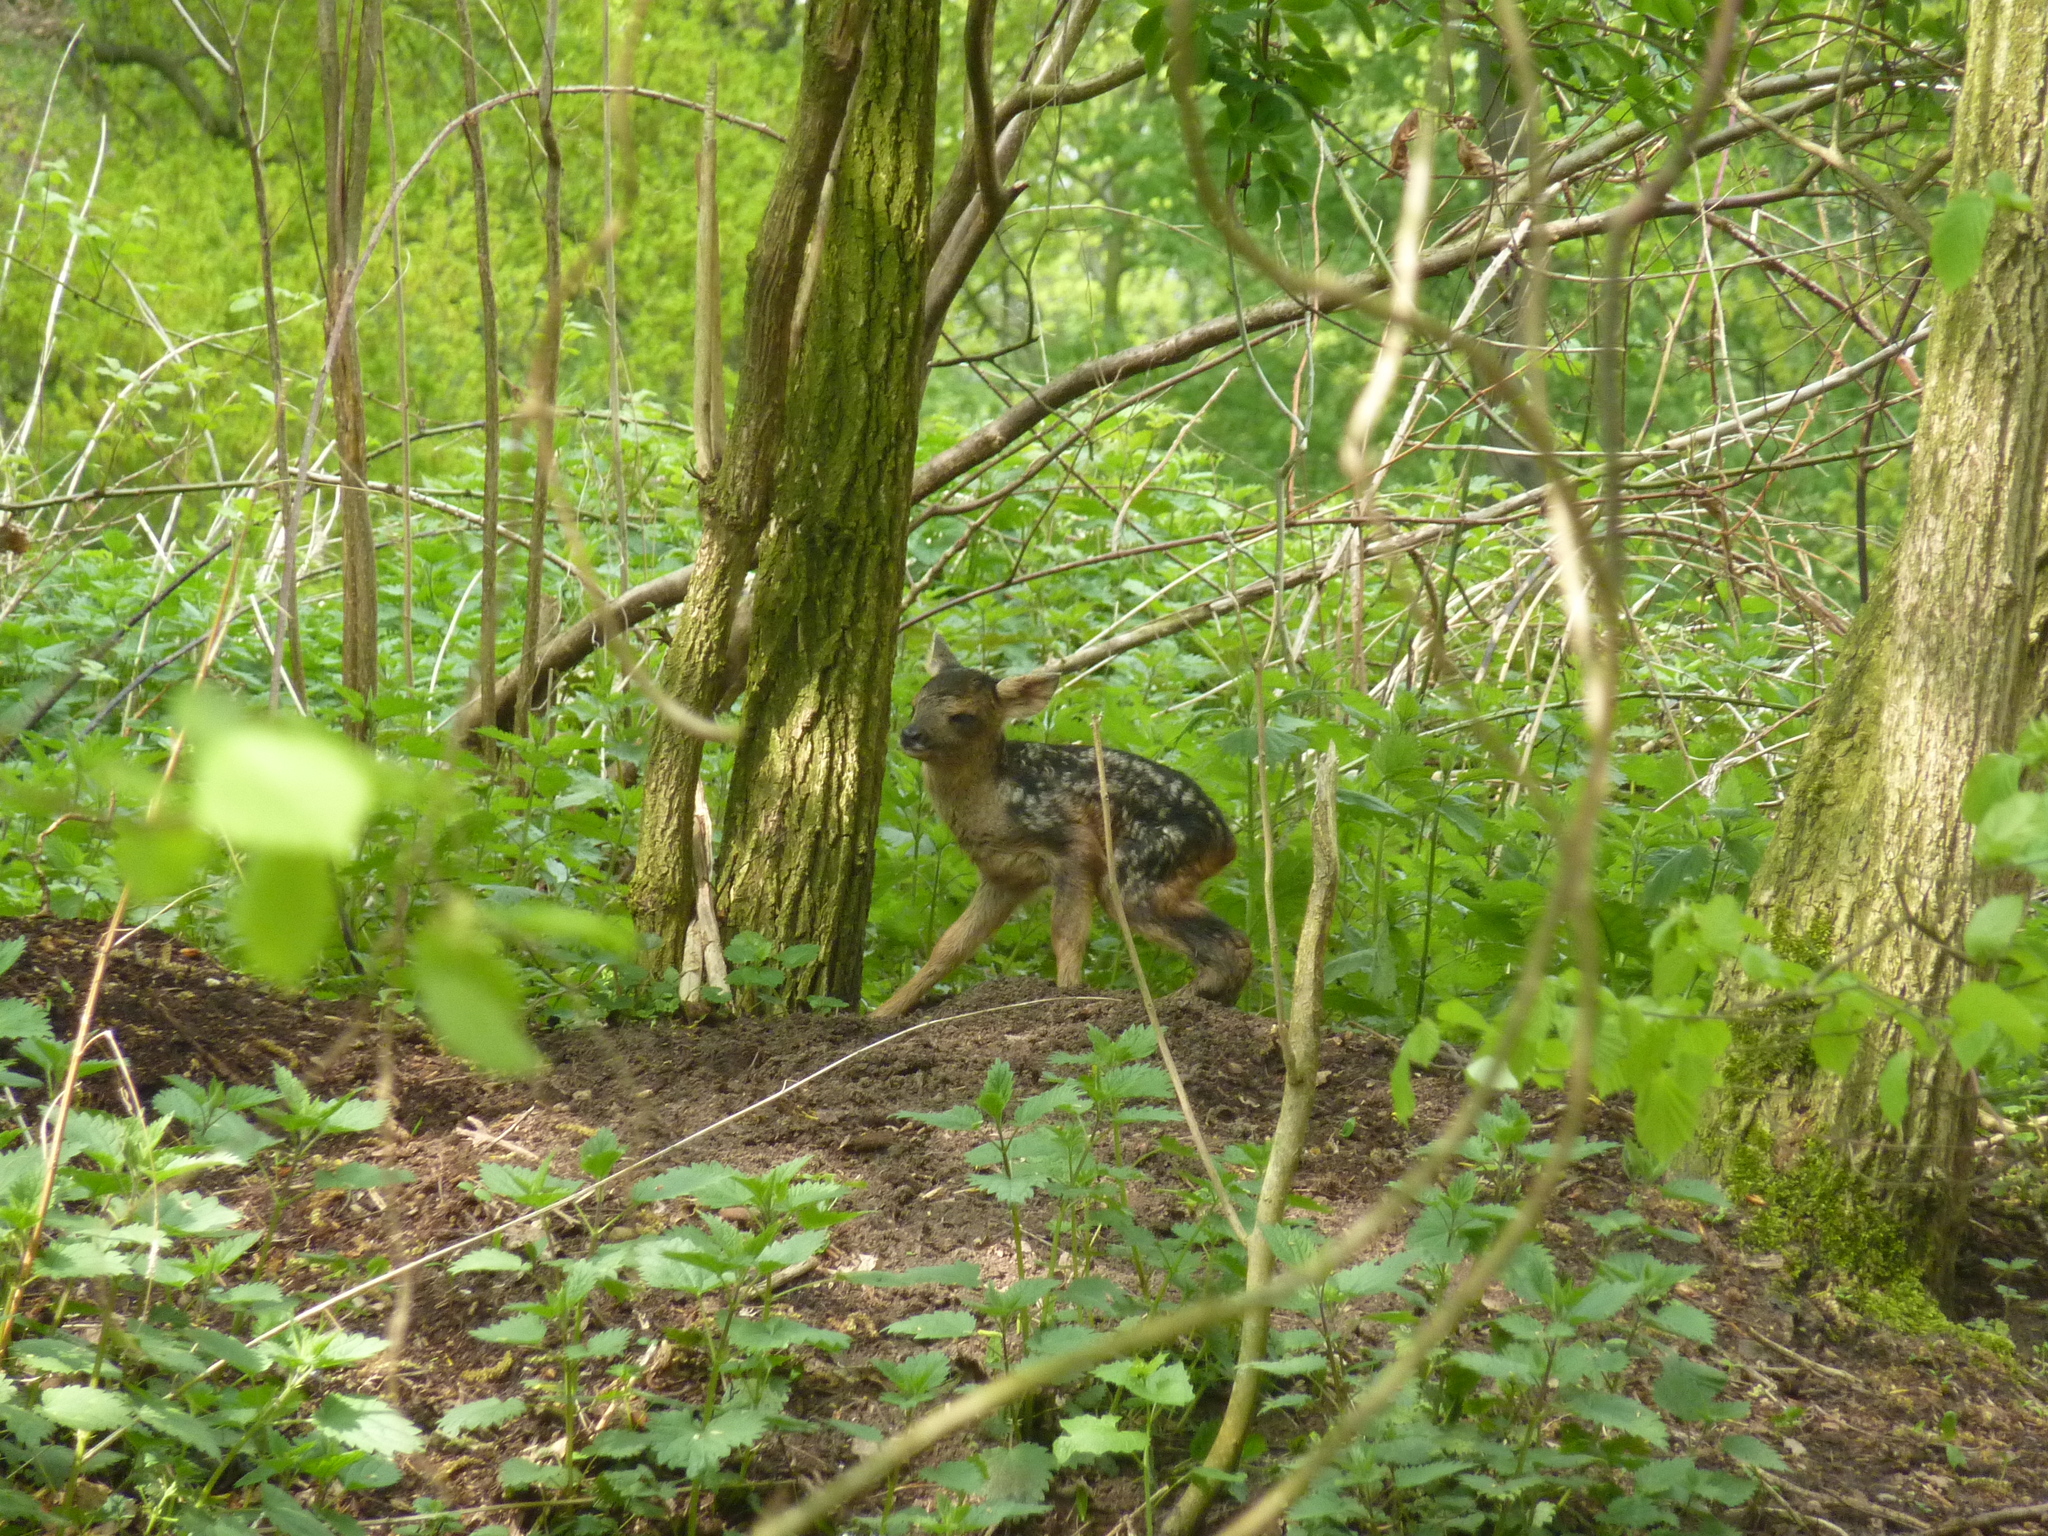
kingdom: Animalia
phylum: Chordata
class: Mammalia
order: Artiodactyla
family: Cervidae
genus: Capreolus
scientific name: Capreolus capreolus
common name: Western roe deer
